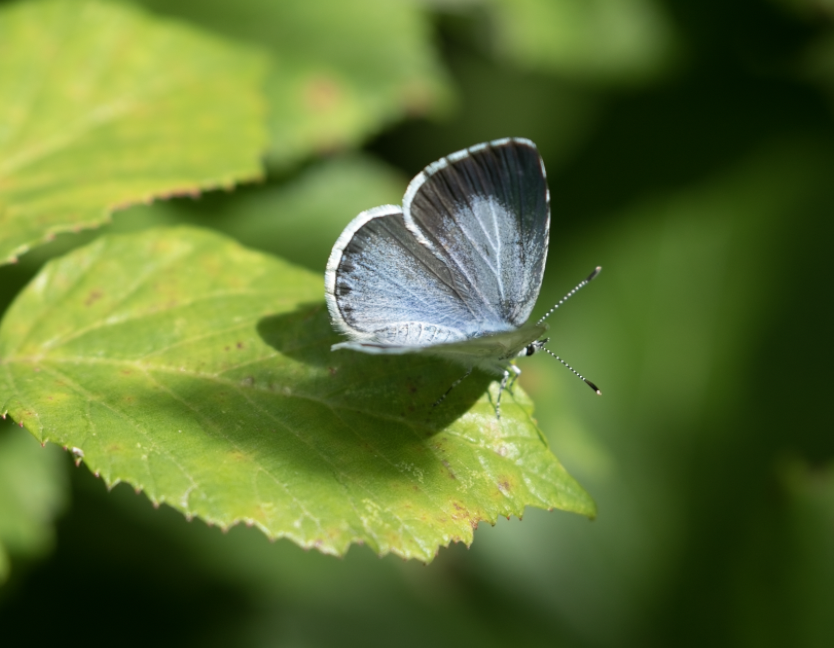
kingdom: Animalia
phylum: Arthropoda
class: Insecta
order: Lepidoptera
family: Lycaenidae
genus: Celastrina
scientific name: Celastrina argiolus
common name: Holly blue
